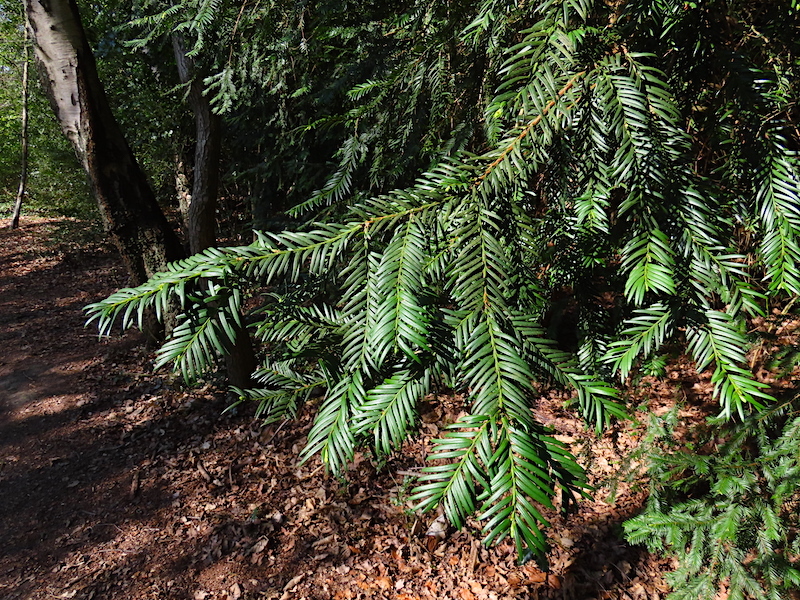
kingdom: Plantae
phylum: Tracheophyta
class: Pinopsida
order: Pinales
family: Taxaceae
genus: Taxus
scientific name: Taxus baccata
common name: Yew
